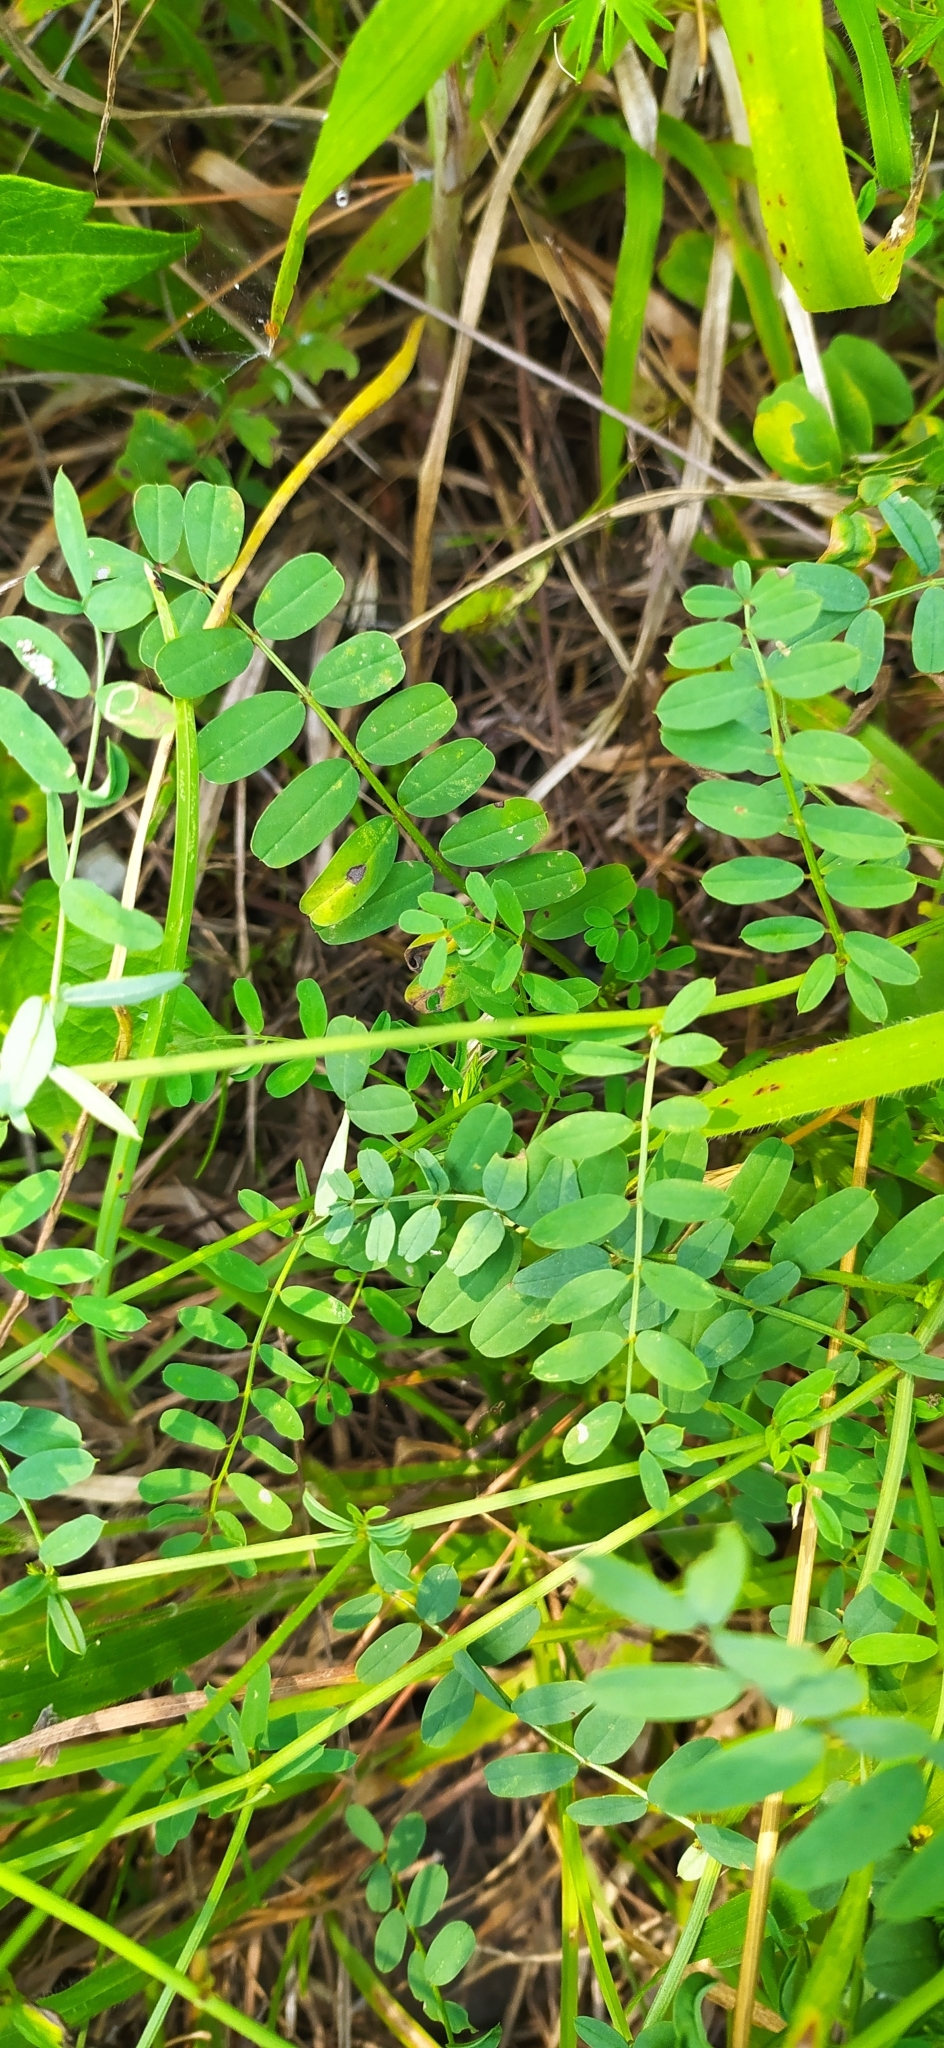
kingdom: Plantae
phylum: Tracheophyta
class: Magnoliopsida
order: Fabales
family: Fabaceae
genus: Coronilla
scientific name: Coronilla varia
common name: Crownvetch
